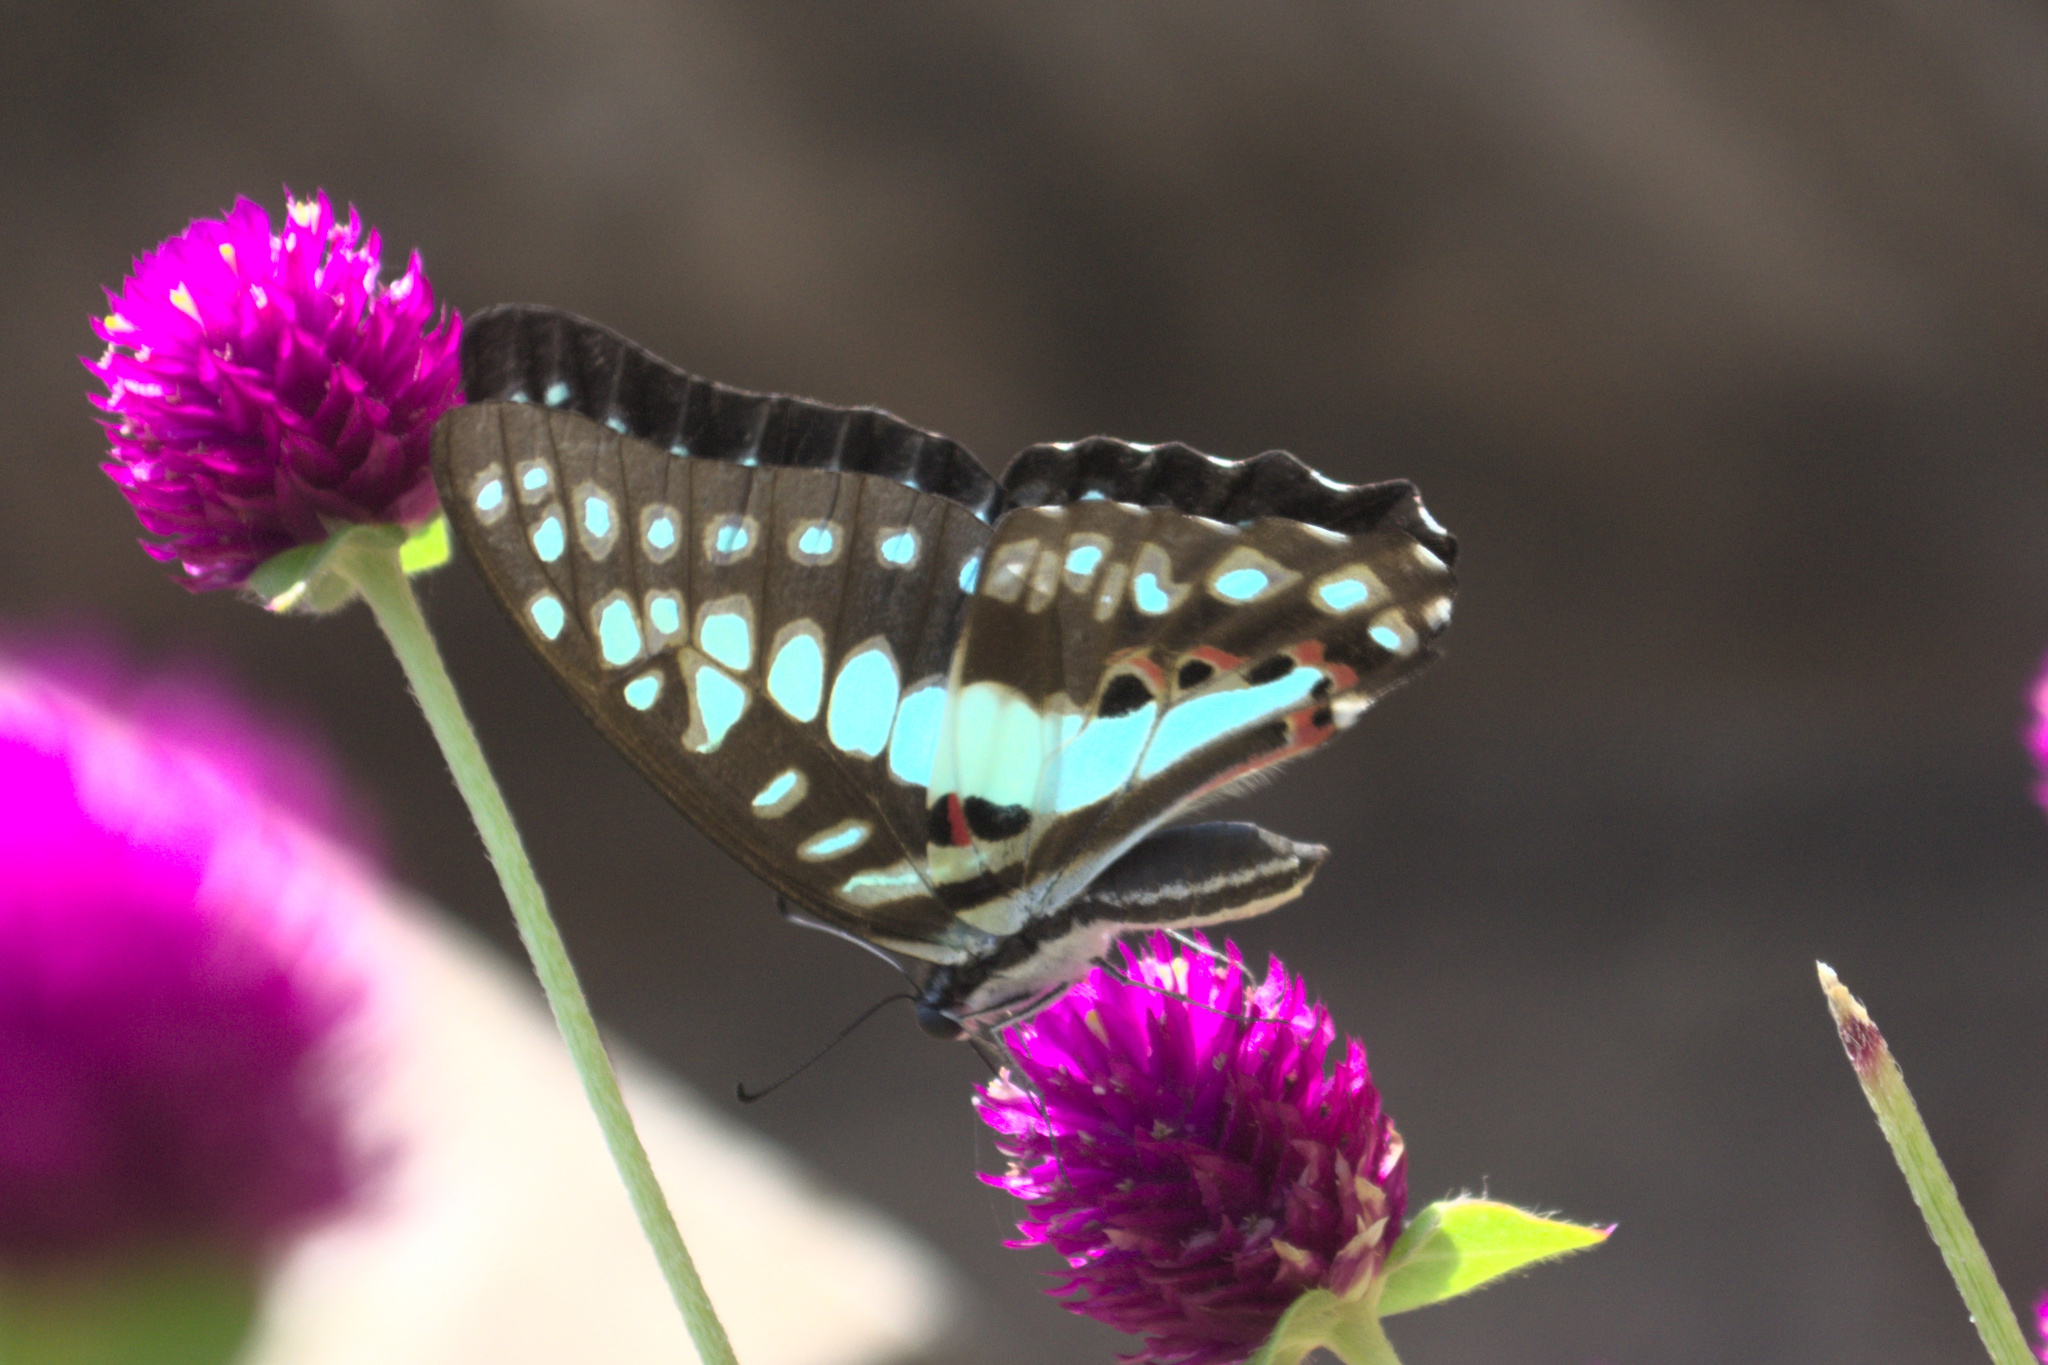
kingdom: Animalia
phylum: Arthropoda
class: Insecta
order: Lepidoptera
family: Papilionidae
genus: Graphium
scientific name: Graphium doson
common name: Common jay
